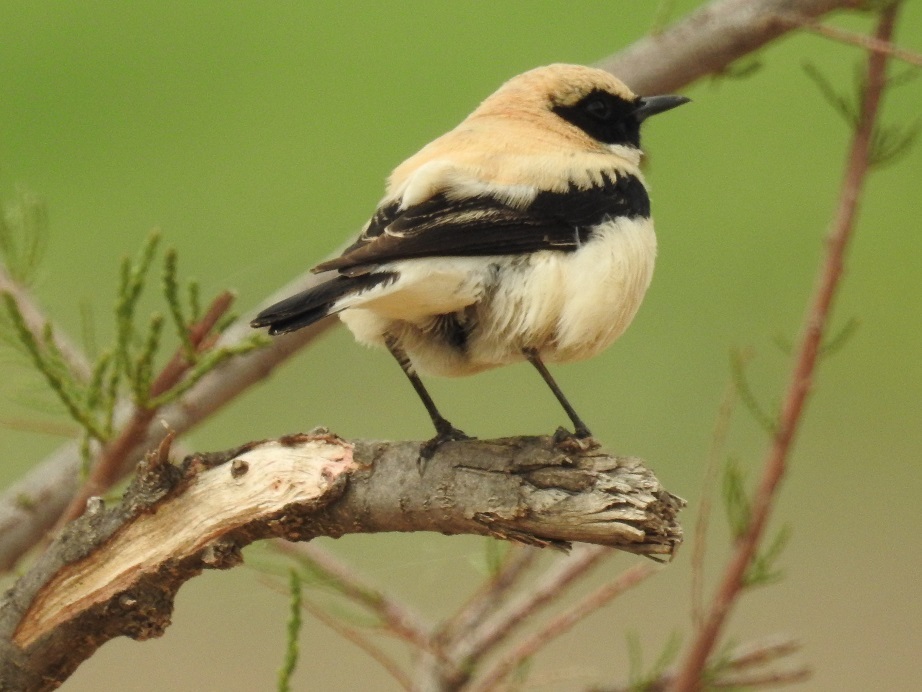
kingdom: Animalia
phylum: Chordata
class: Aves
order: Passeriformes
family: Muscicapidae
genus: Oenanthe
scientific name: Oenanthe hispanica
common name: Black-eared wheatear
